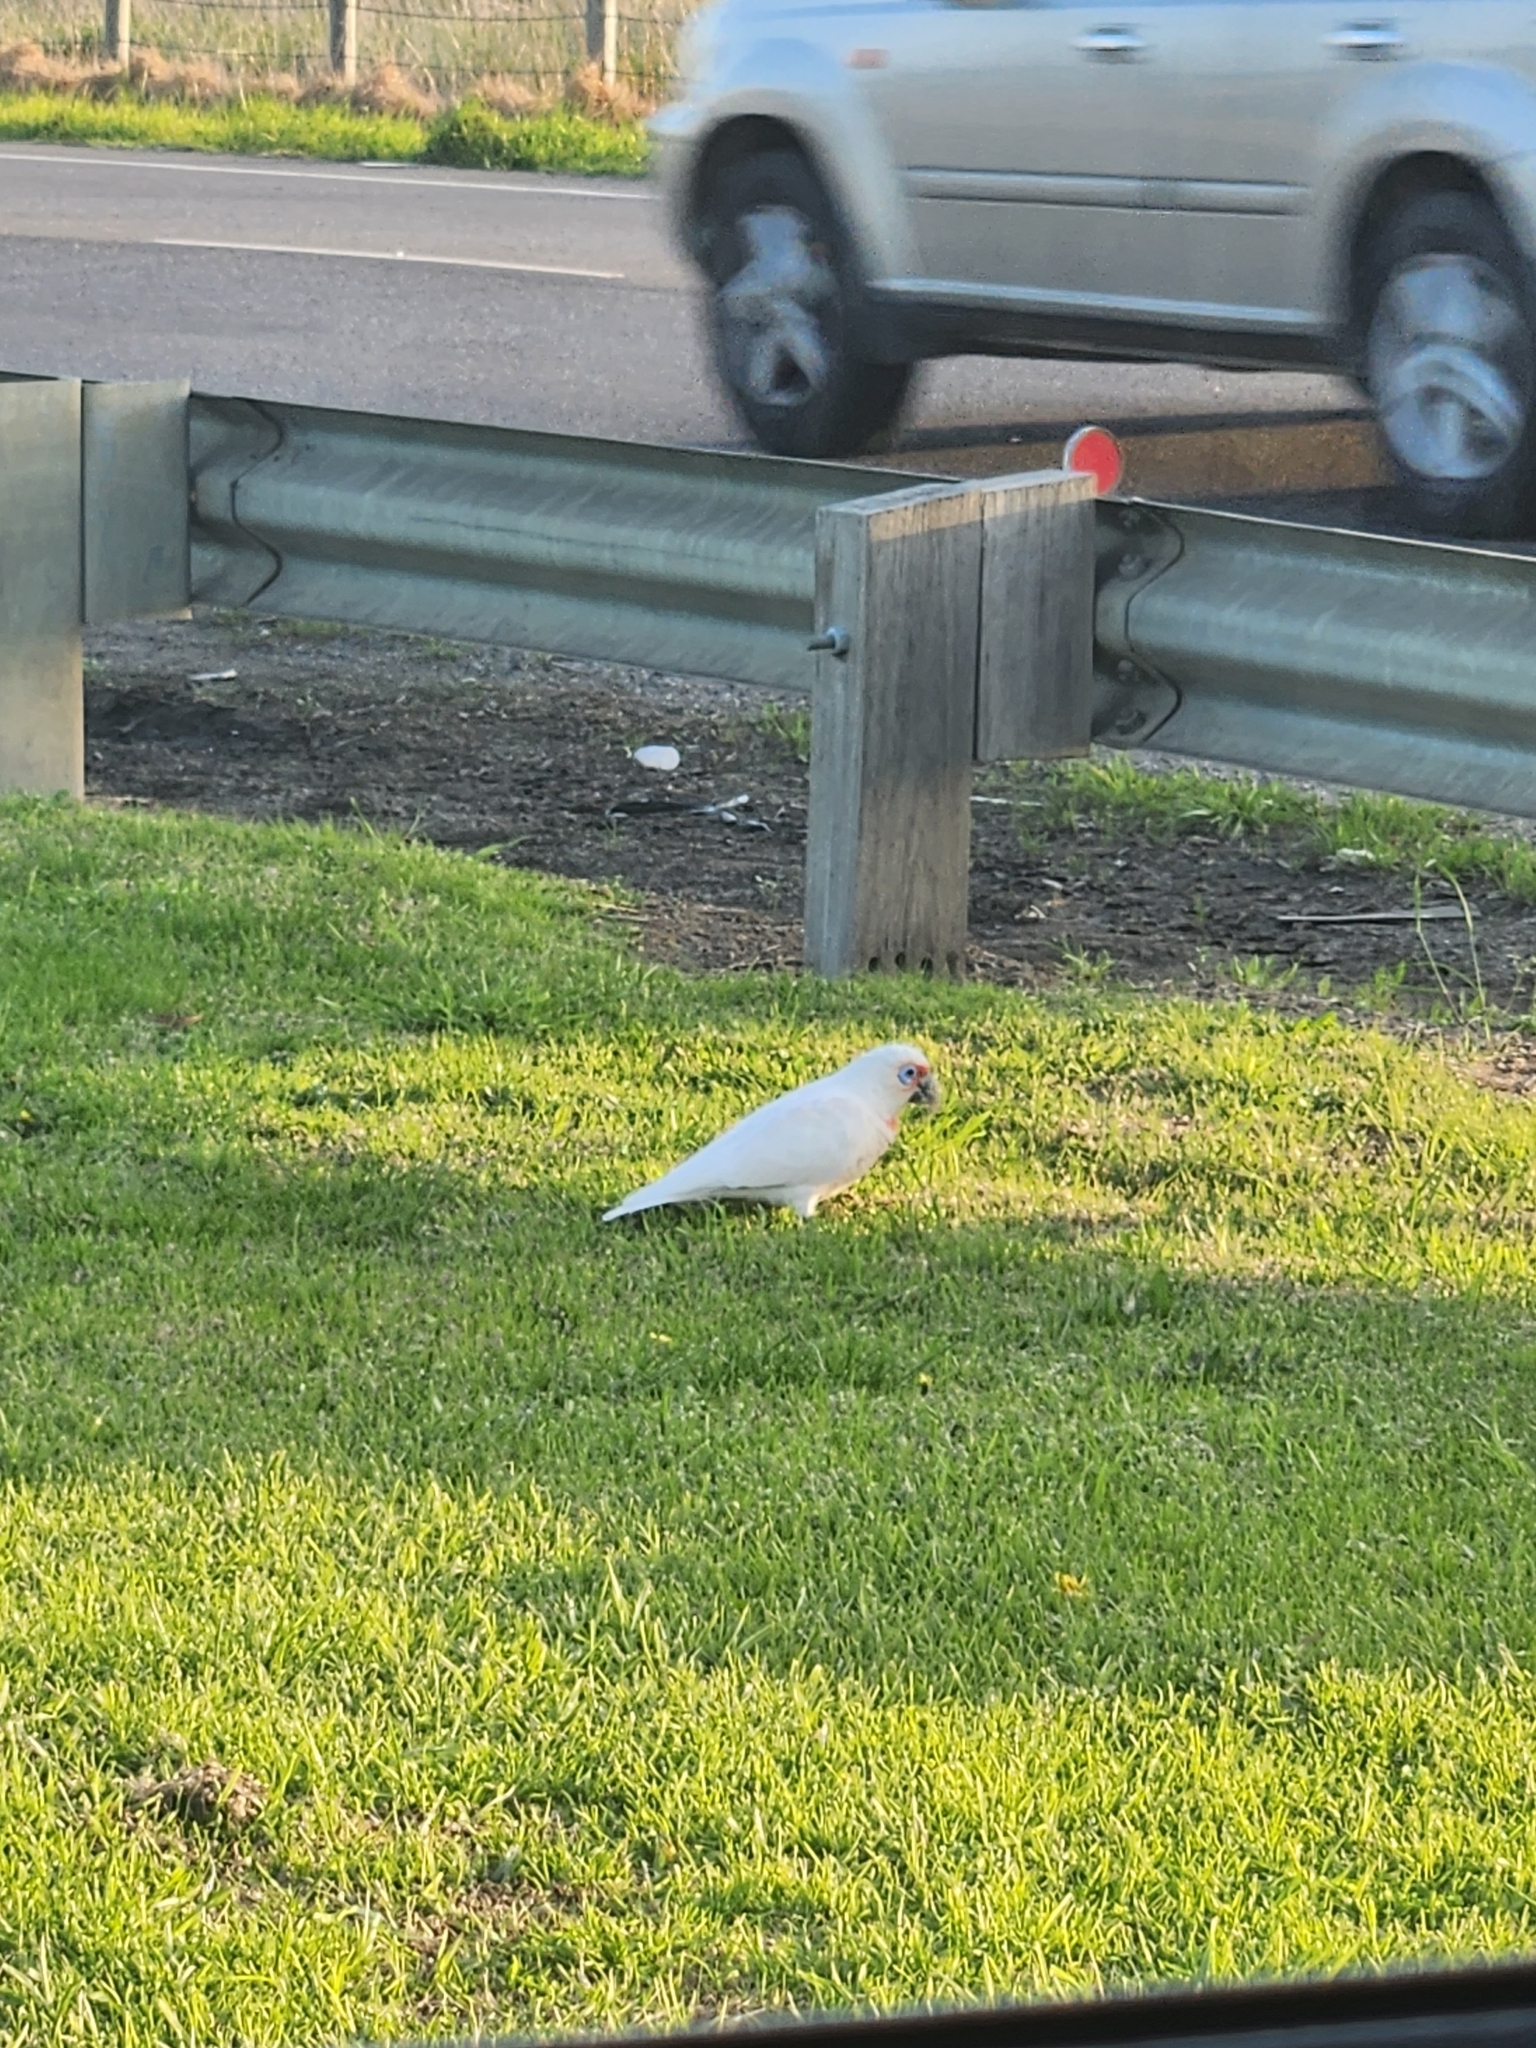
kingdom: Animalia
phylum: Chordata
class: Aves
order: Psittaciformes
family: Psittacidae
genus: Cacatua
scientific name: Cacatua tenuirostris
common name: Long-billed corella
